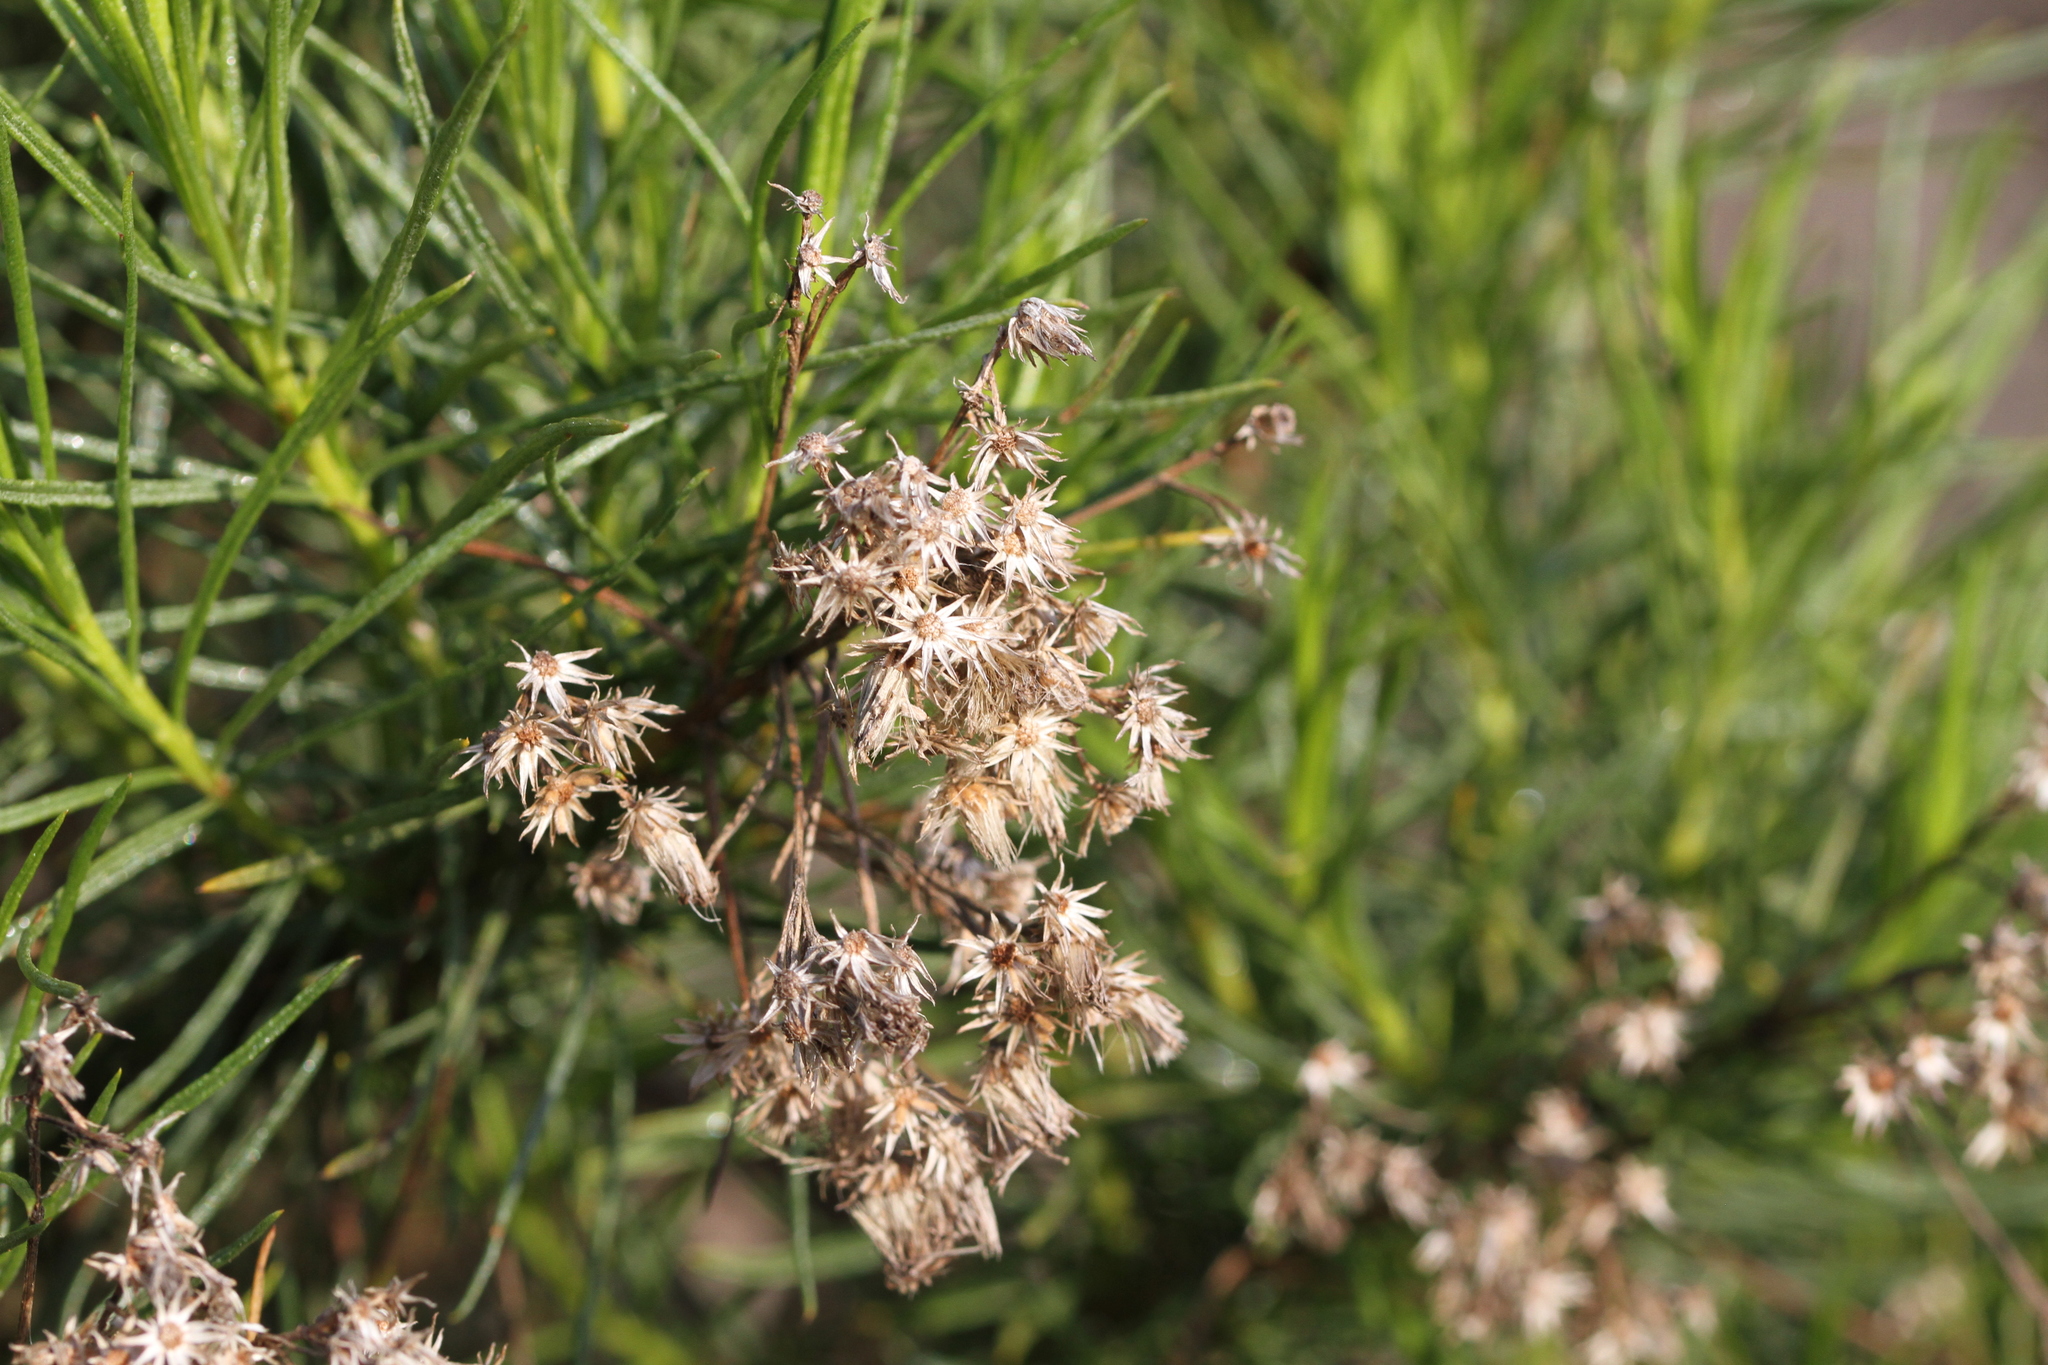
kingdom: Plantae
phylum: Tracheophyta
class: Magnoliopsida
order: Asterales
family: Asteraceae
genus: Ericameria
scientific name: Ericameria arborescens
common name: Goldenfleece
